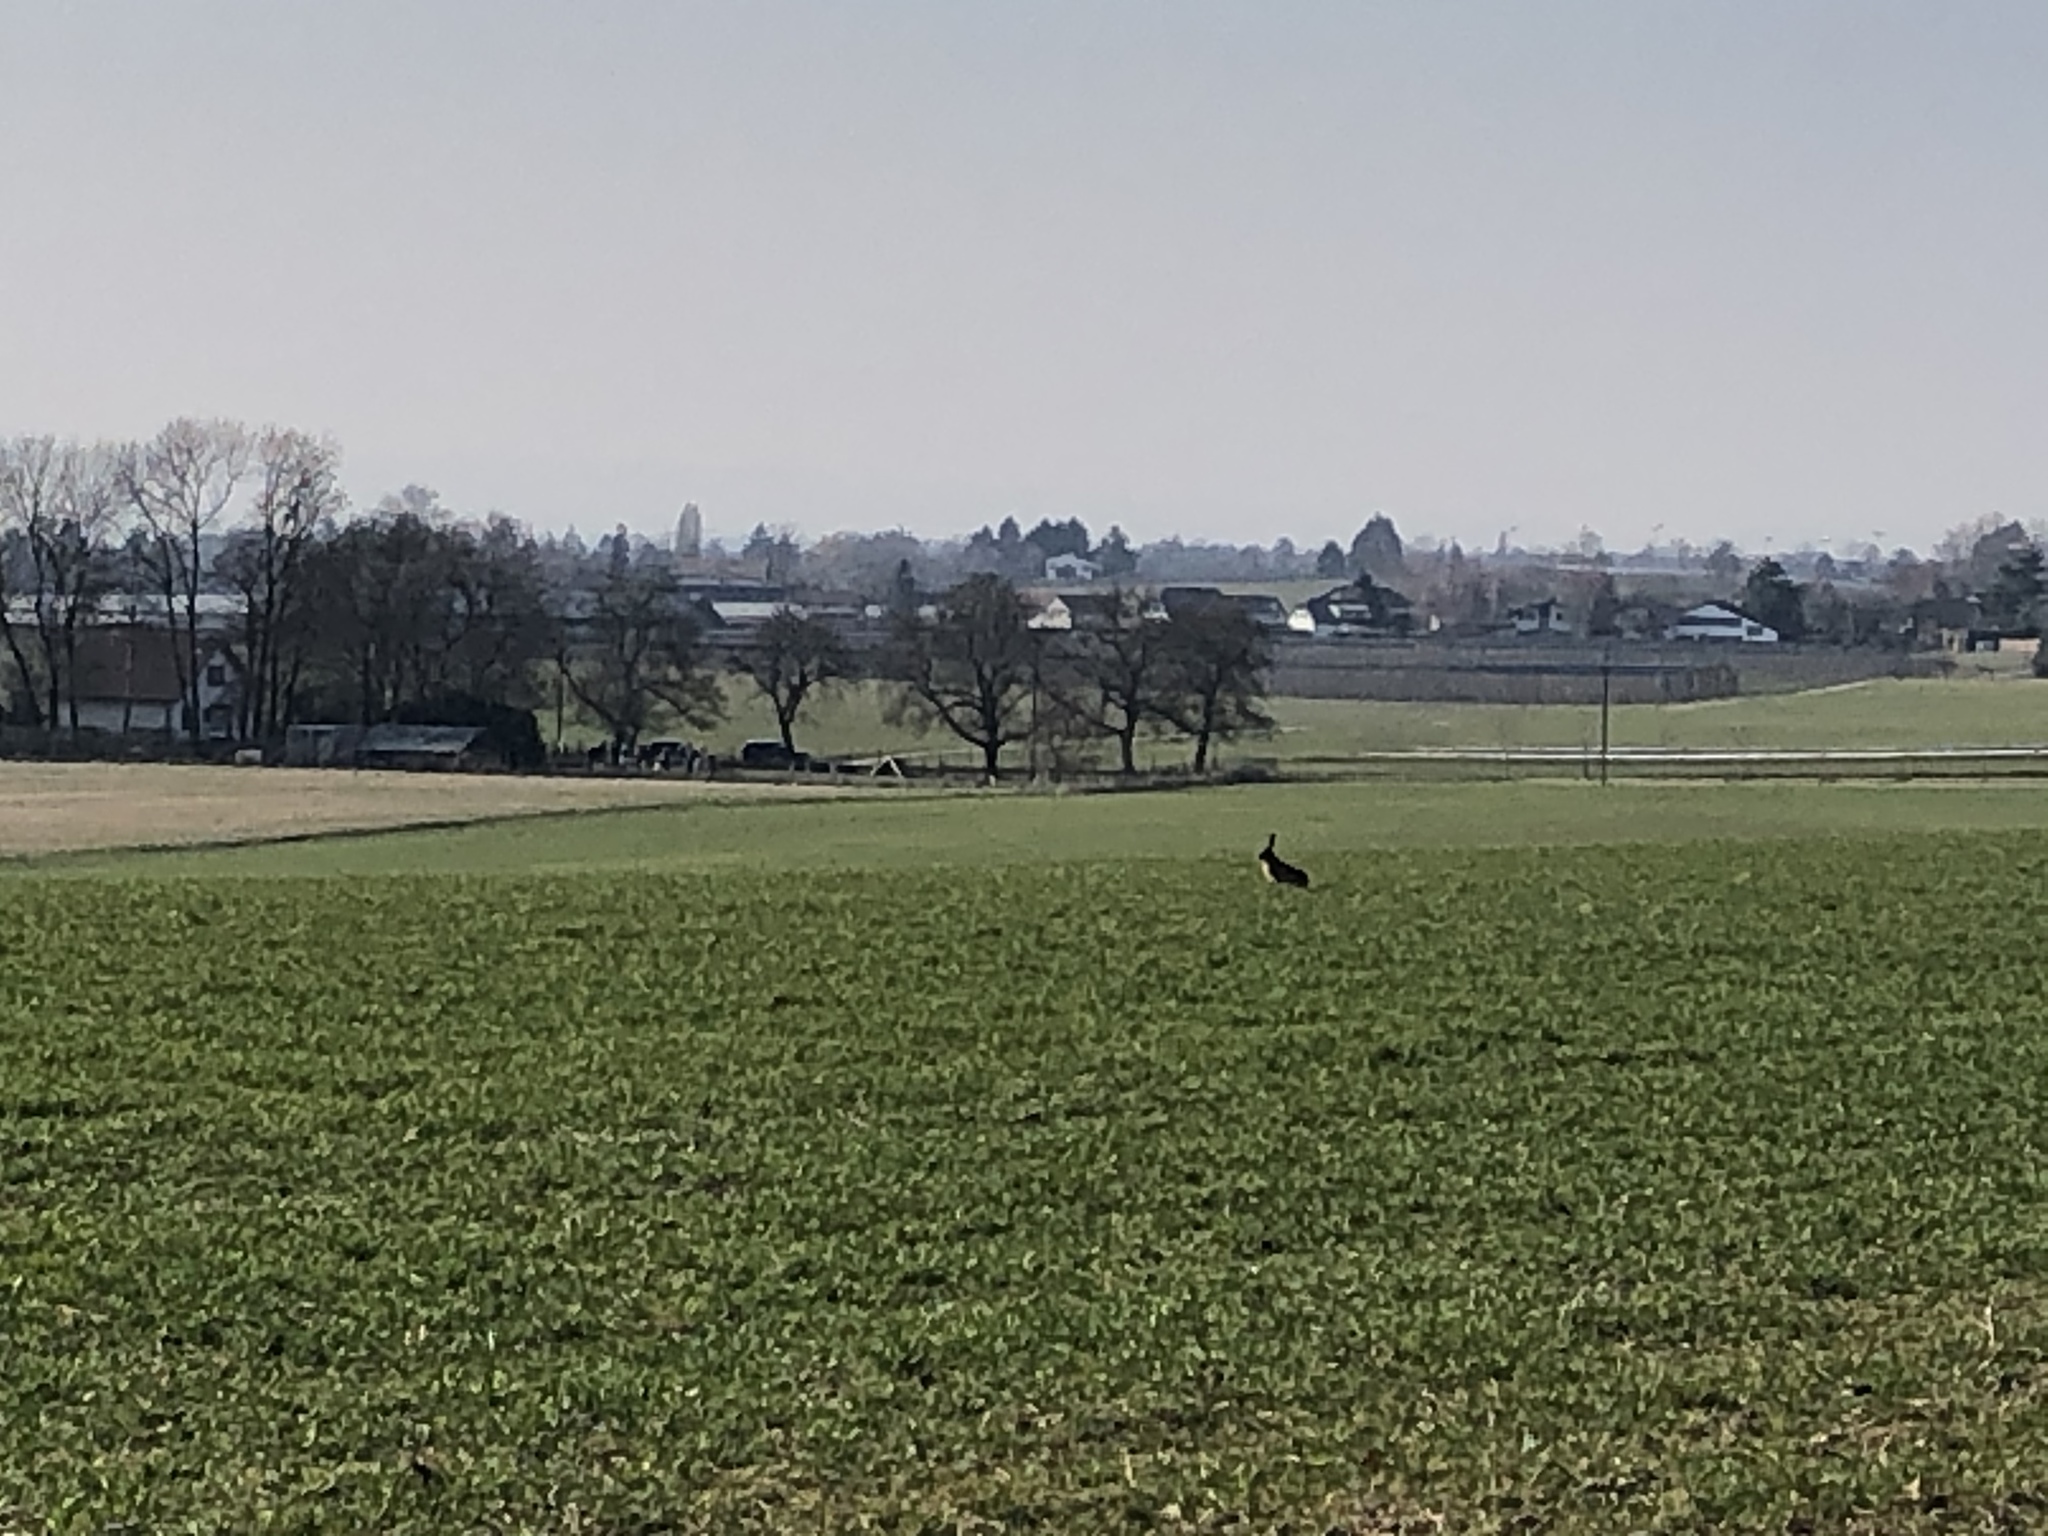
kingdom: Animalia
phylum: Chordata
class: Mammalia
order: Lagomorpha
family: Leporidae
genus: Lepus
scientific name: Lepus europaeus
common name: European hare
